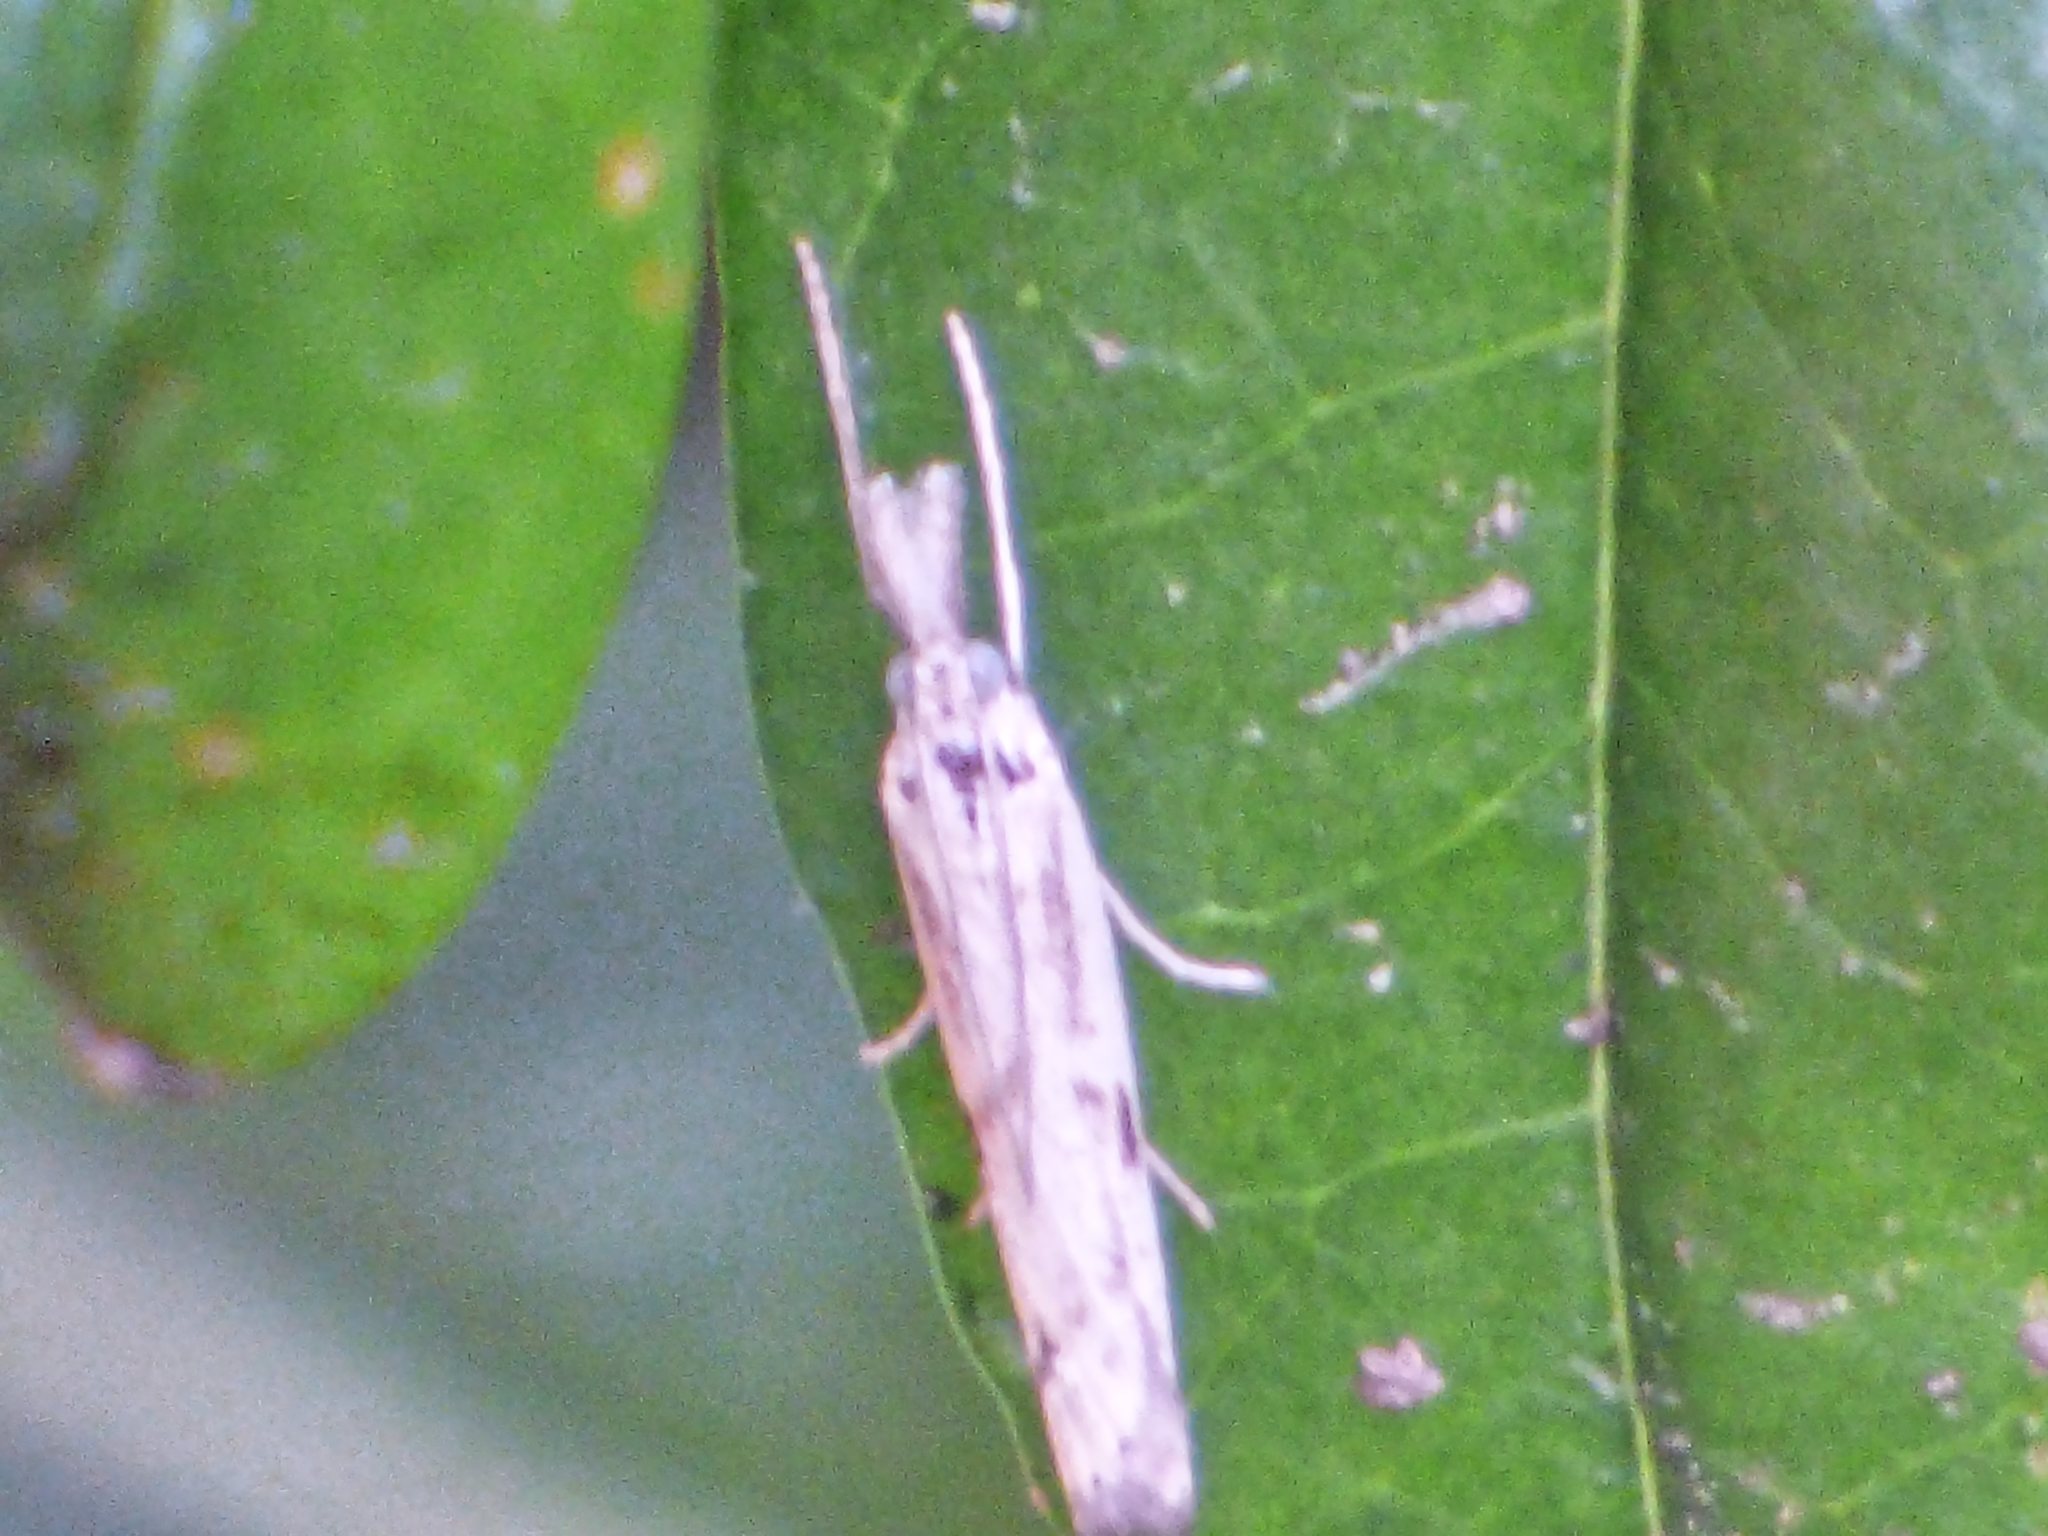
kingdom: Animalia
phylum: Arthropoda
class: Insecta
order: Lepidoptera
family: Crambidae
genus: Agriphila
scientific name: Agriphila inquinatella
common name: Barred grass-veneer
